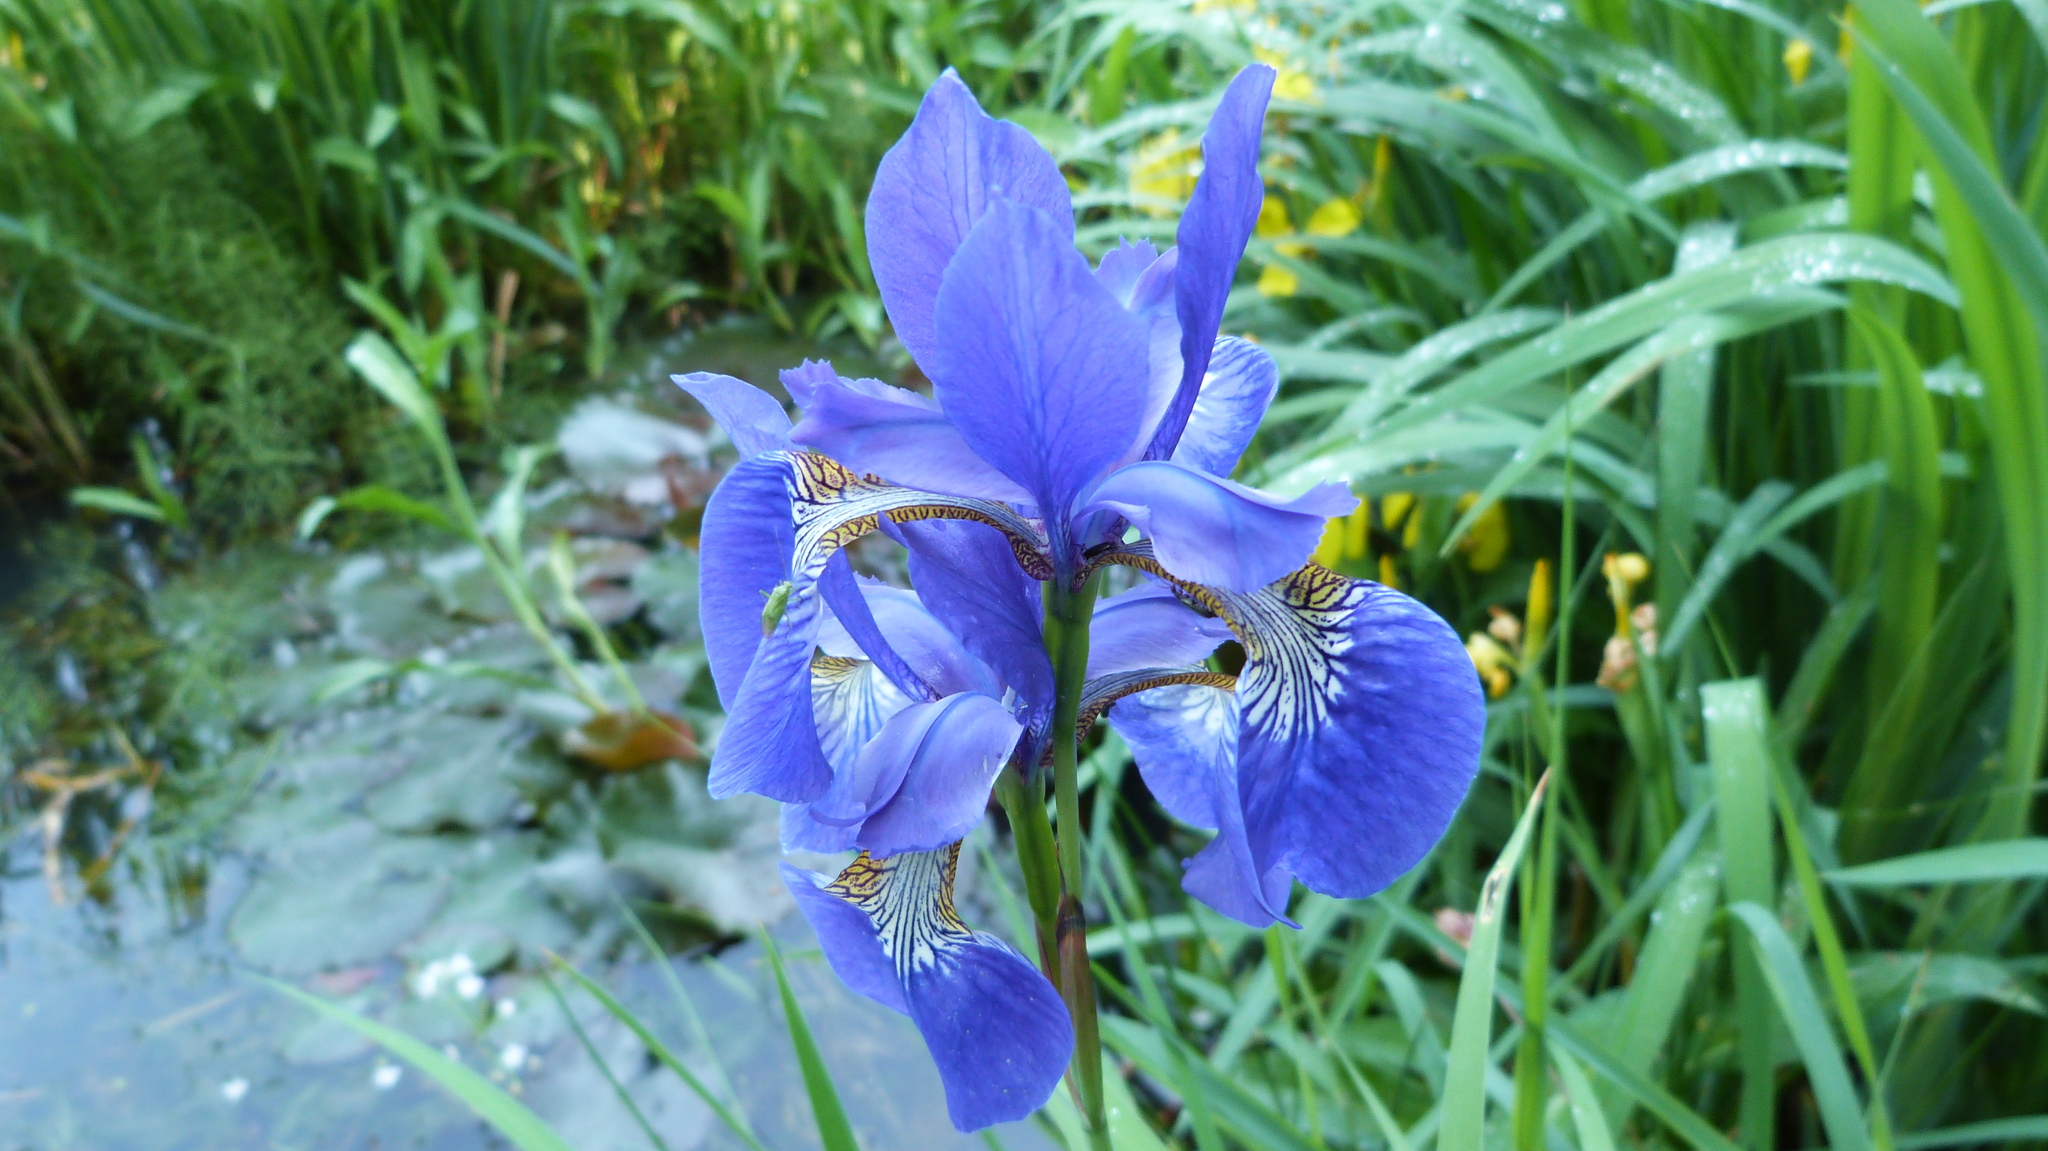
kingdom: Plantae
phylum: Tracheophyta
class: Liliopsida
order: Asparagales
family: Iridaceae
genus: Iris
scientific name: Iris sanguinea
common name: Blood iris
